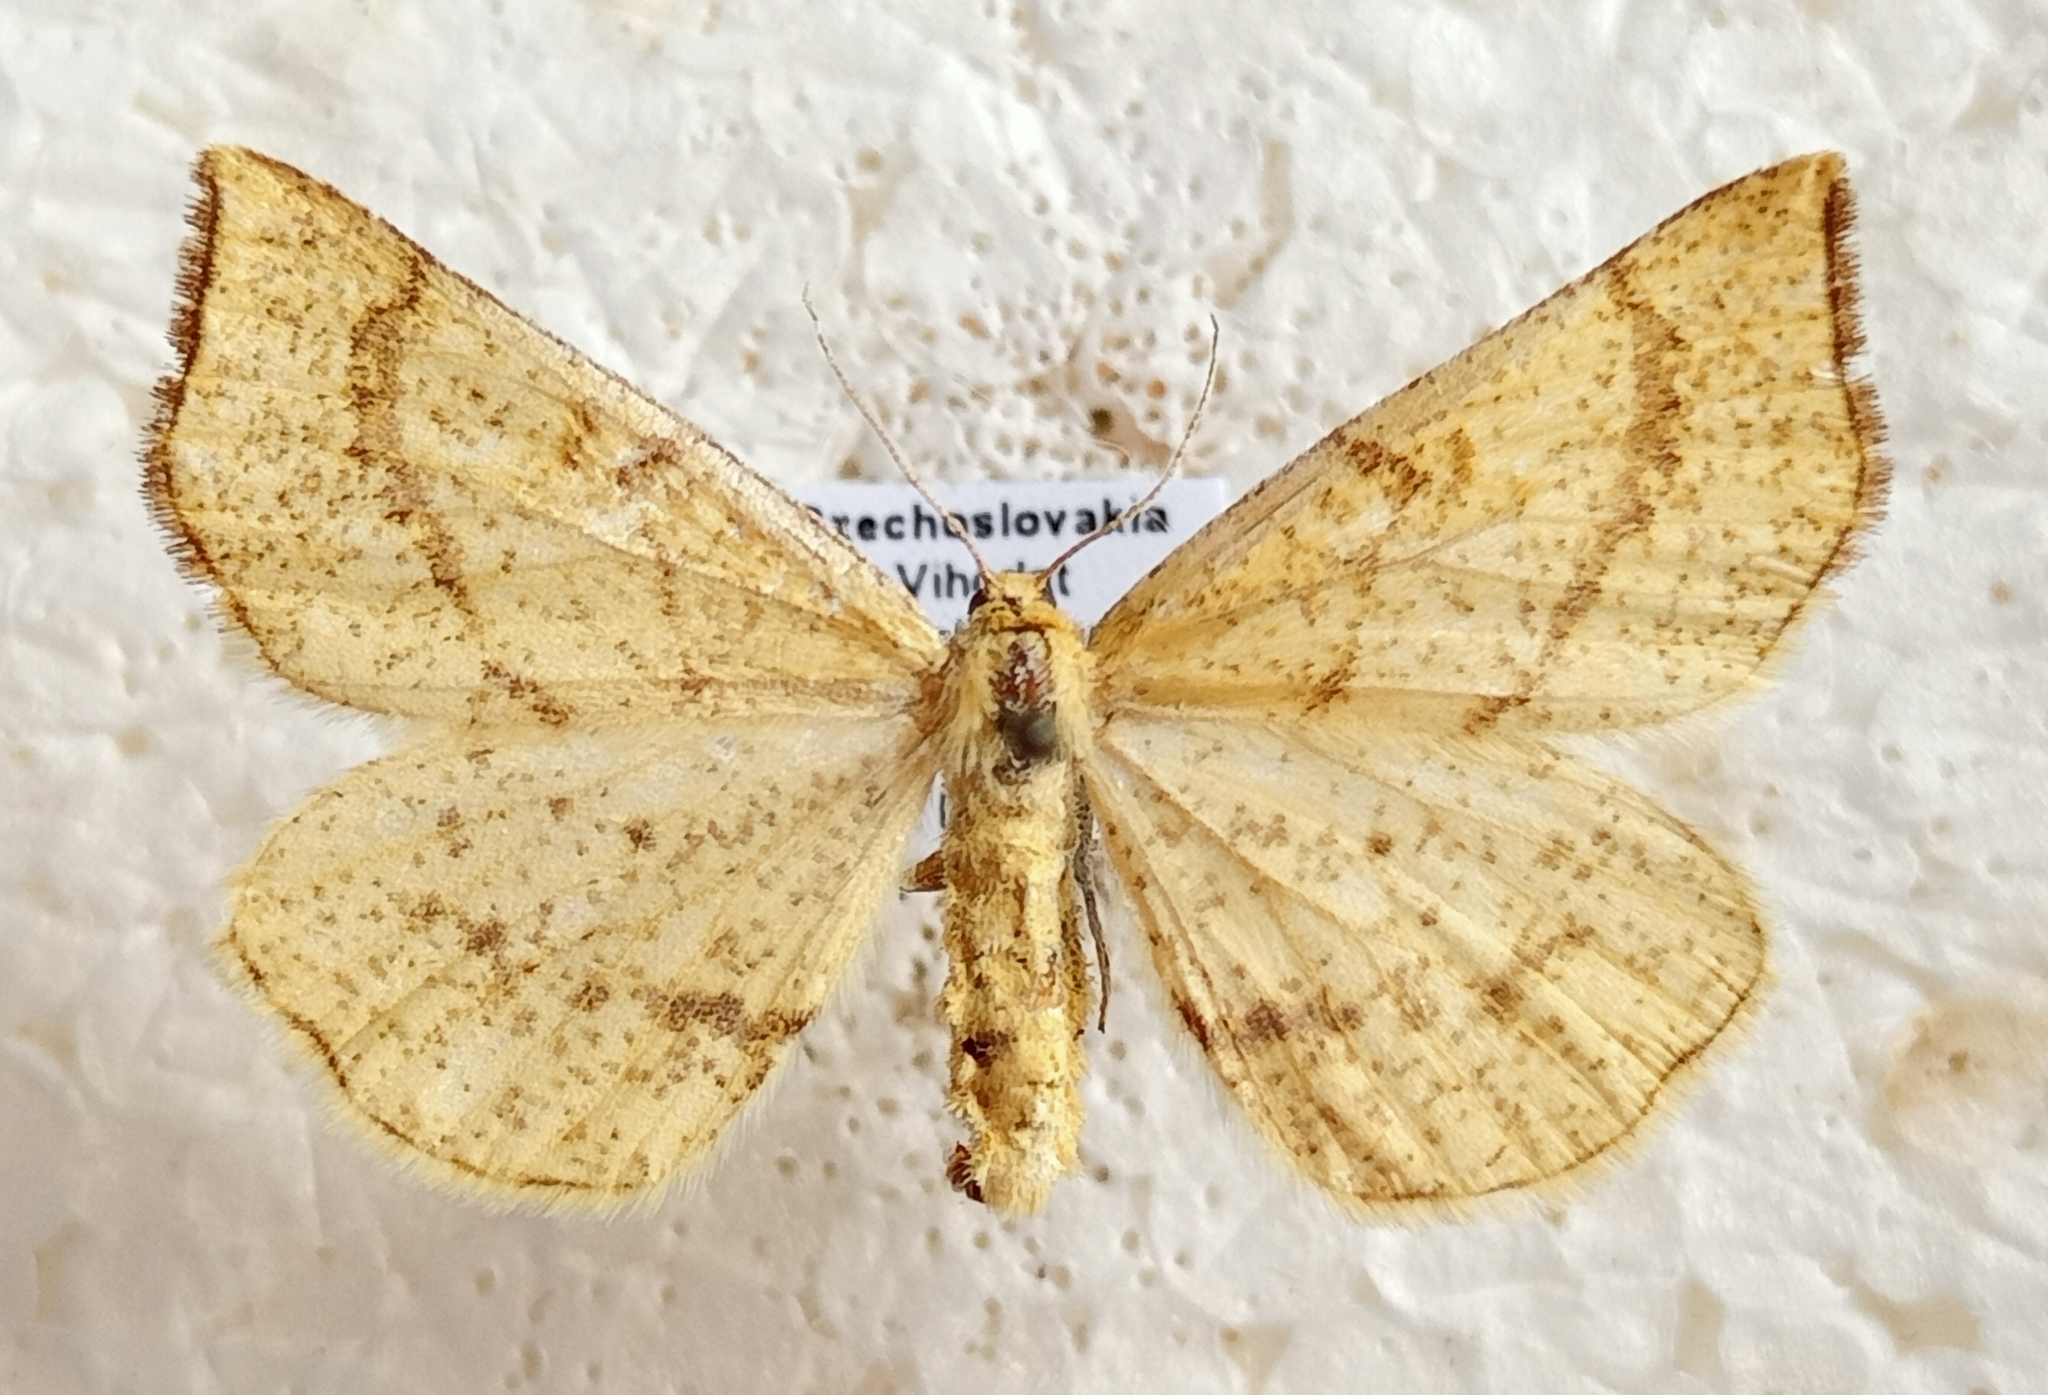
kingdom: Animalia
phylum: Arthropoda
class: Insecta
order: Lepidoptera
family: Geometridae
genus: Hypoxystis
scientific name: Hypoxystis pluviaria
